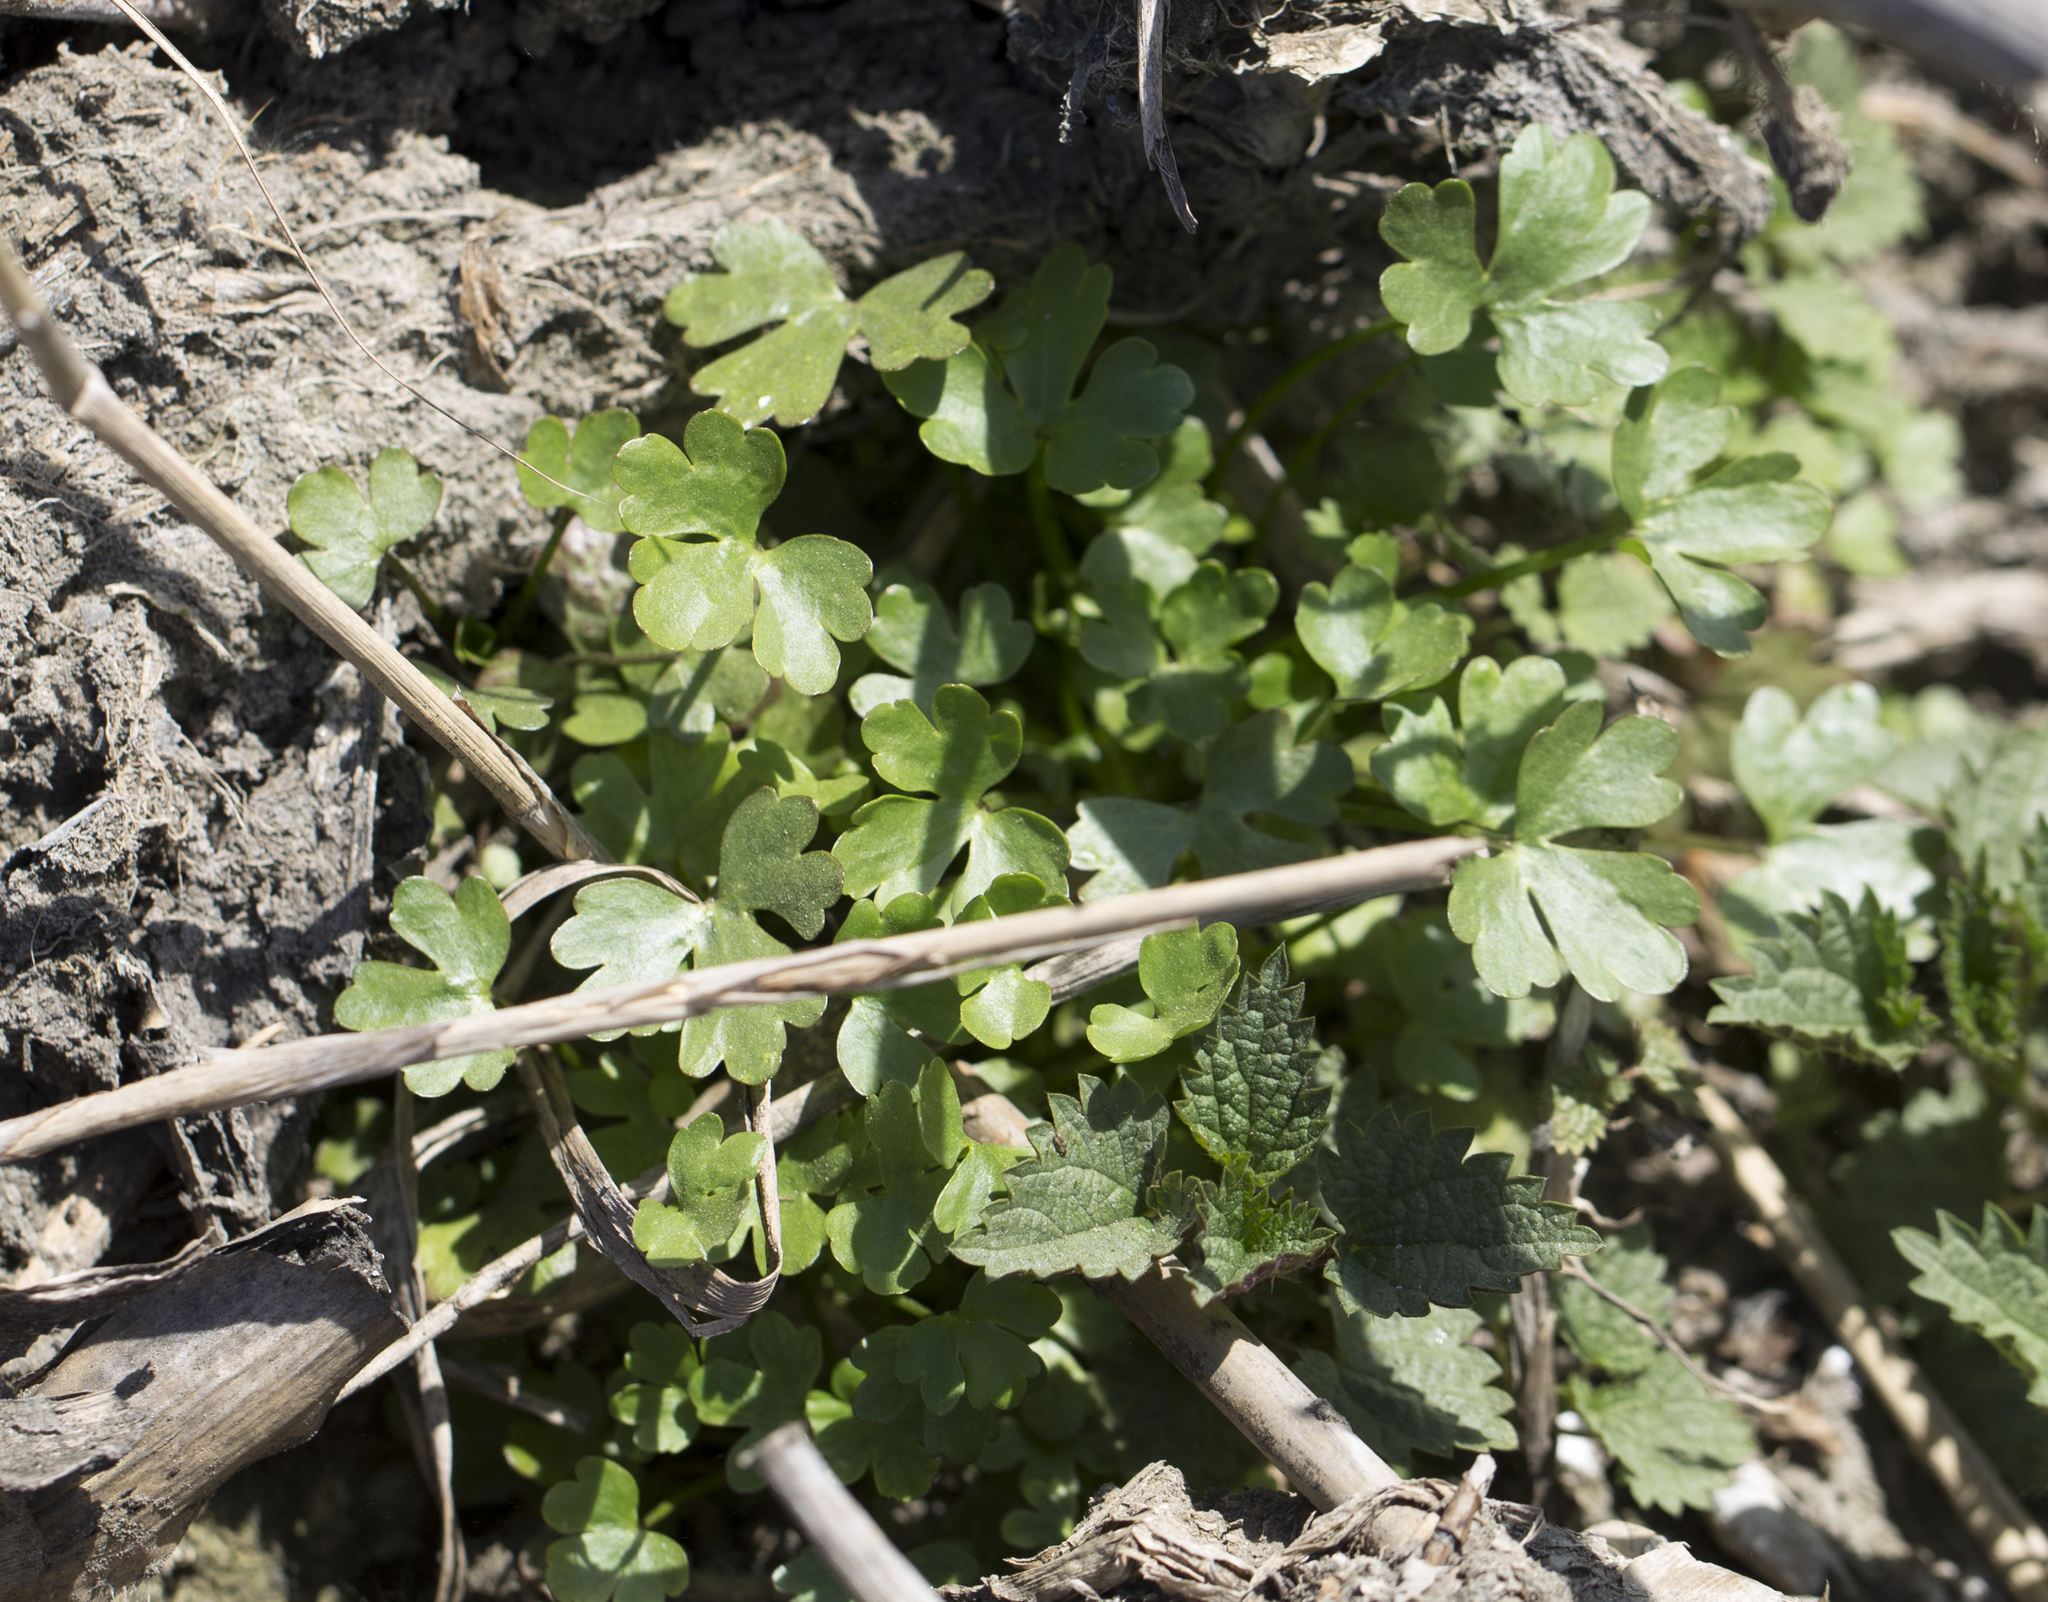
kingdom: Plantae
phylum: Tracheophyta
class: Magnoliopsida
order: Ranunculales
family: Ranunculaceae
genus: Ranunculus
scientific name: Ranunculus sceleratus
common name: Celery-leaved buttercup
